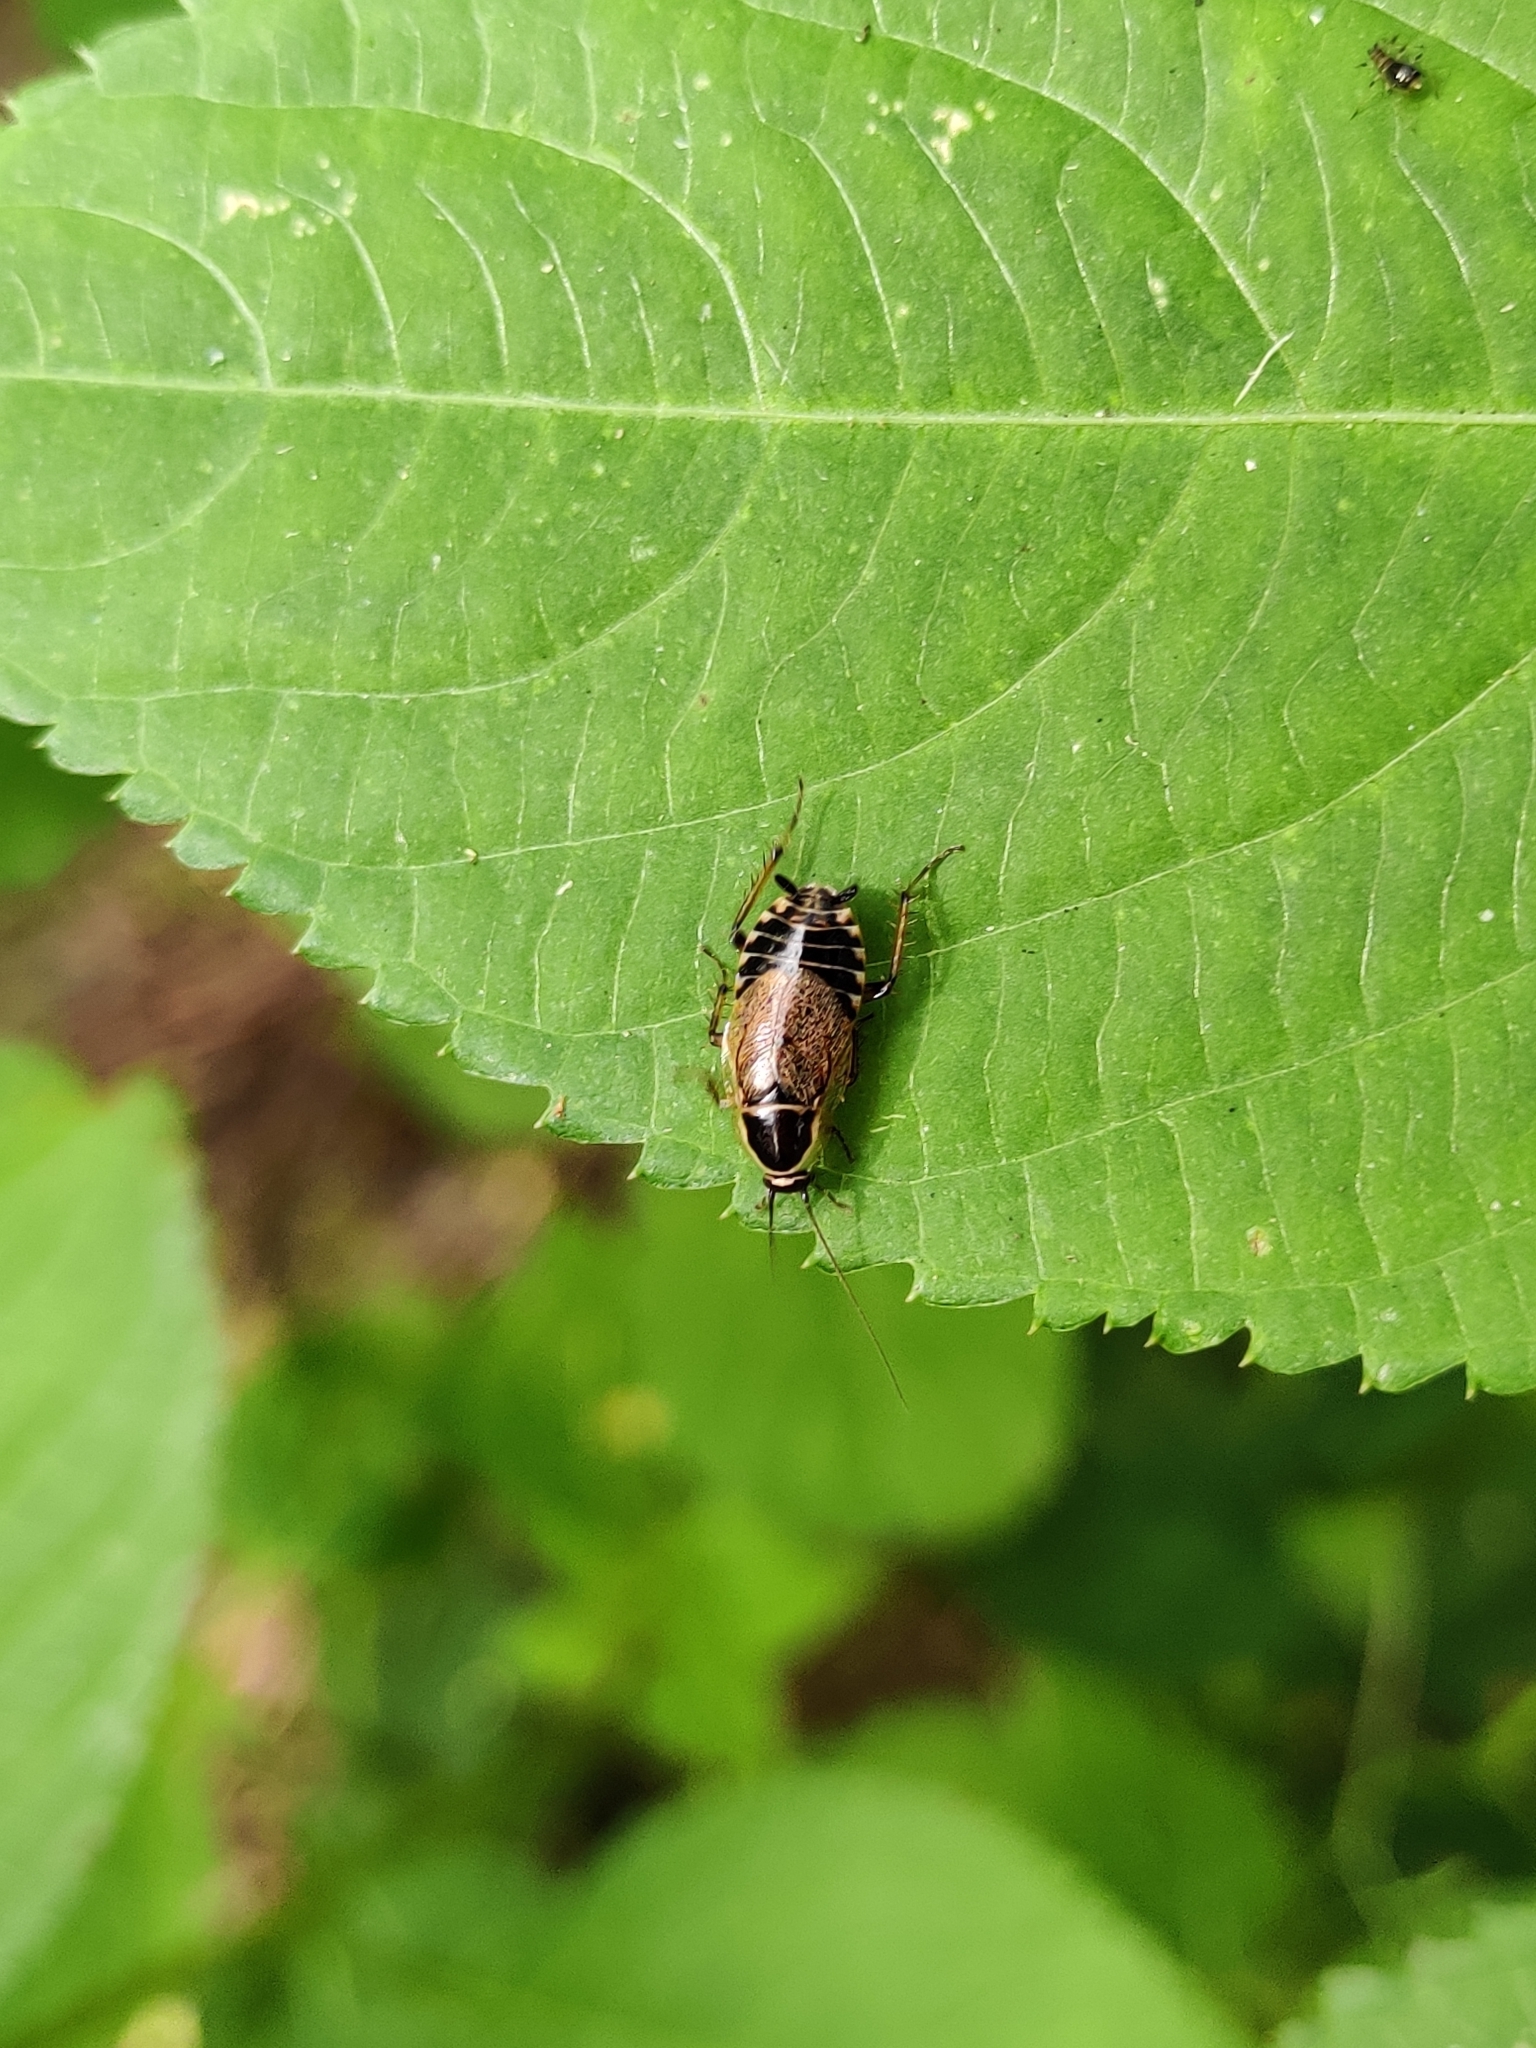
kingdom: Animalia
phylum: Arthropoda
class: Insecta
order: Blattodea
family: Ectobiidae
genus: Ectobius
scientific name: Ectobius sylvestris
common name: Forest cockroach
